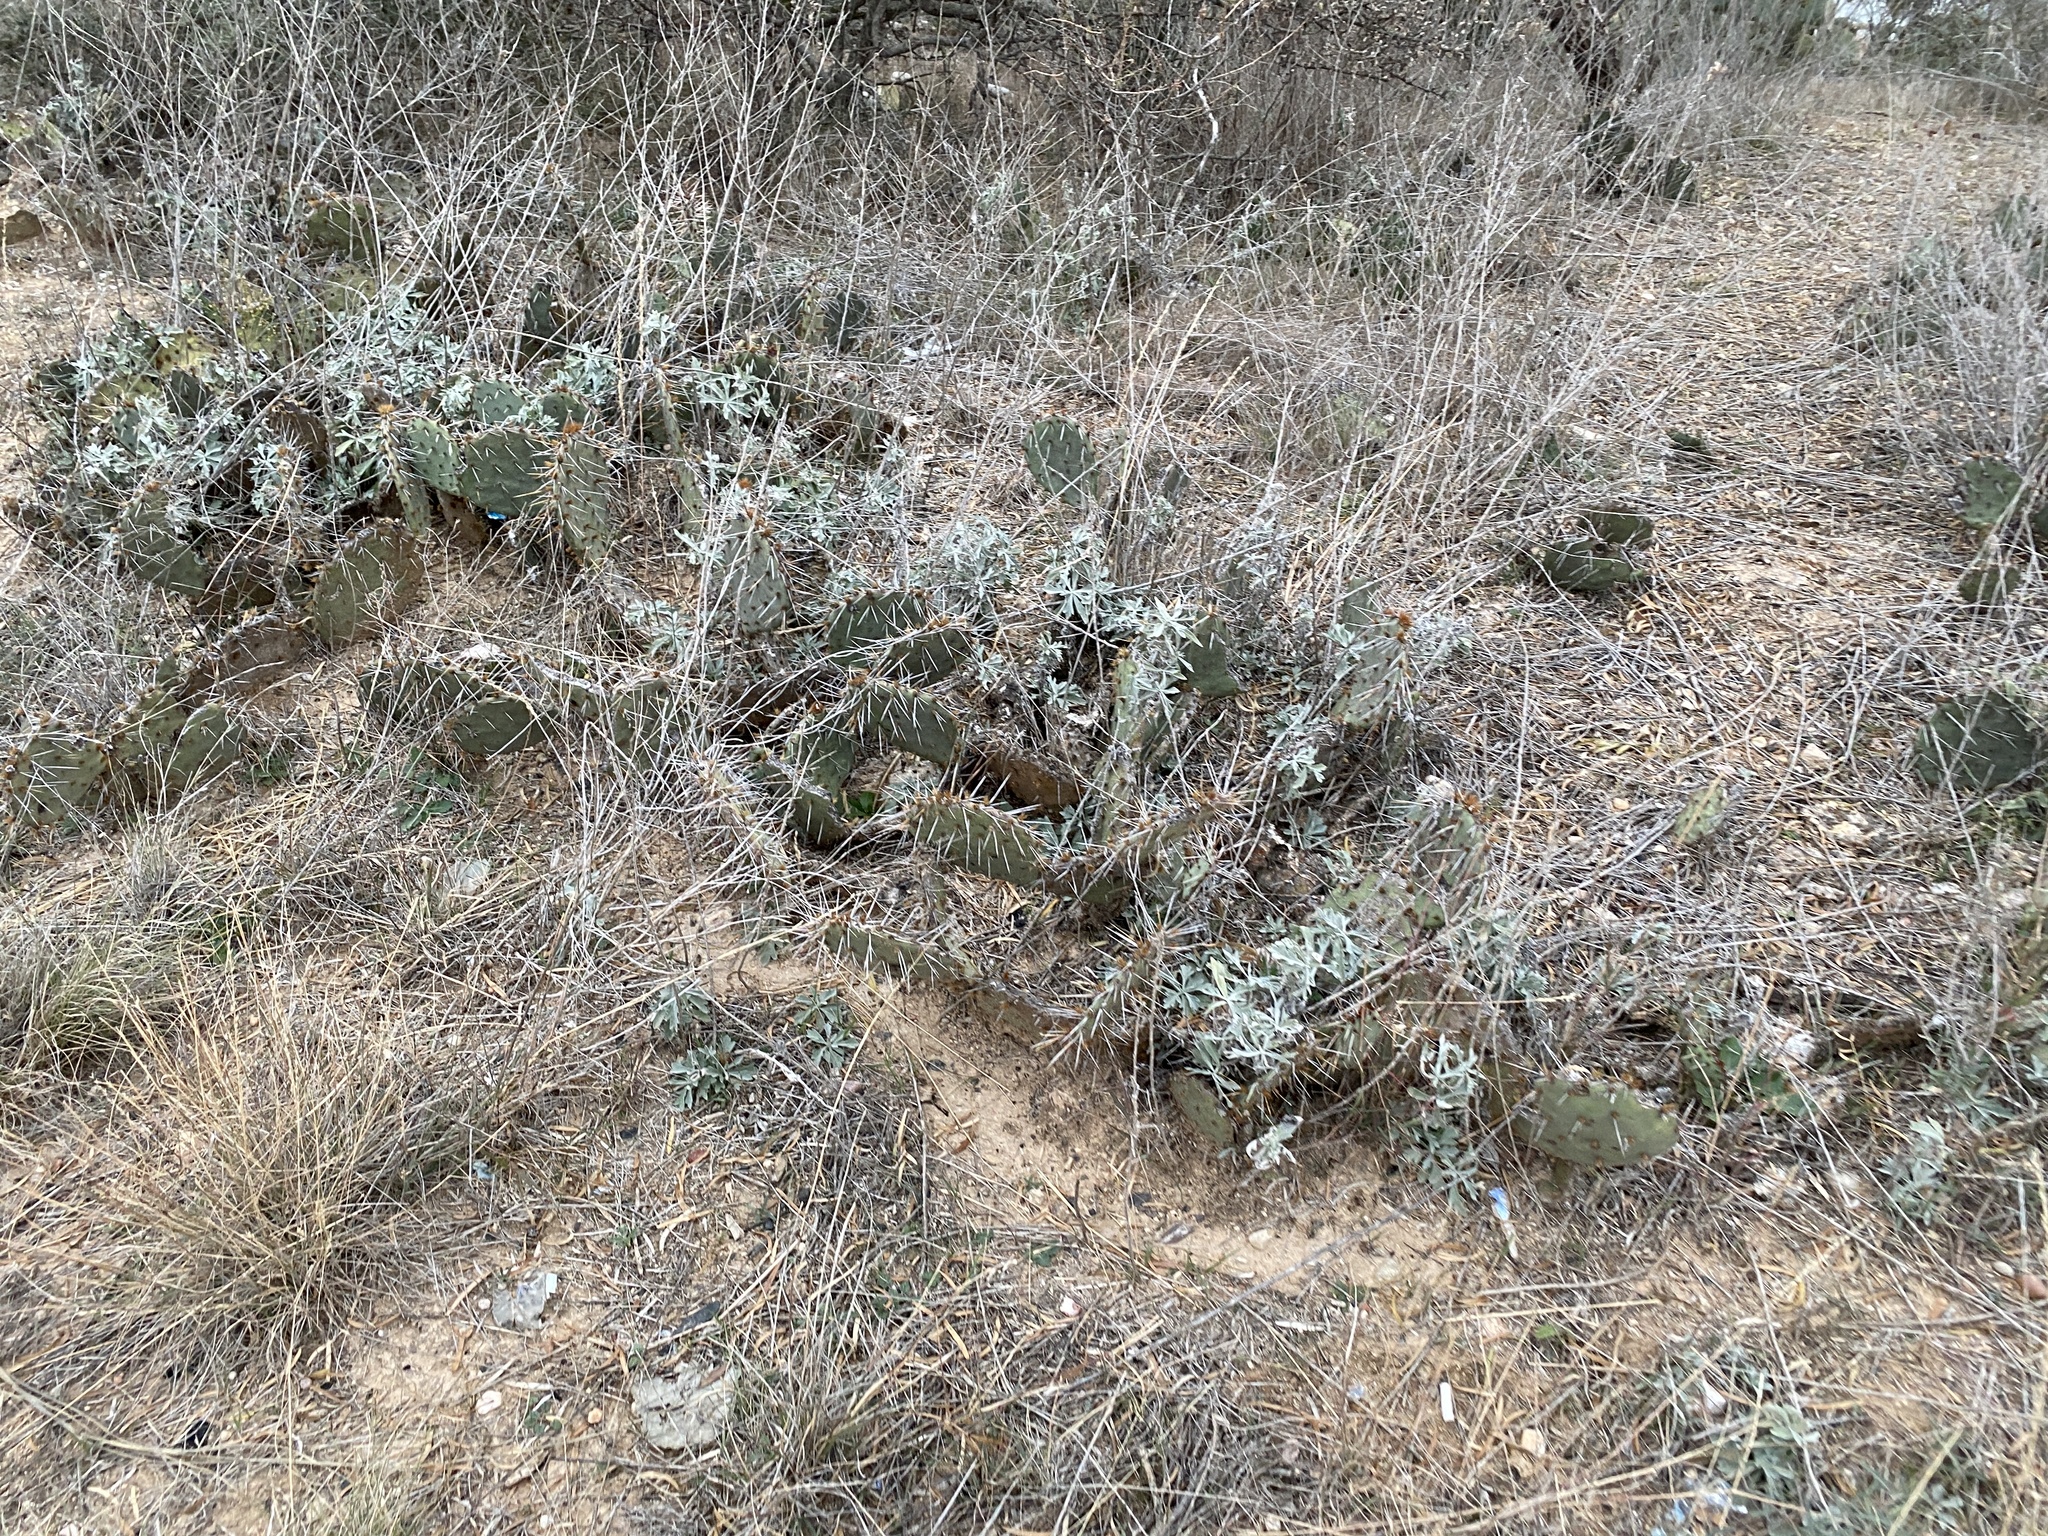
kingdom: Plantae
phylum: Tracheophyta
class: Magnoliopsida
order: Caryophyllales
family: Cactaceae
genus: Opuntia
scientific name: Opuntia phaeacantha
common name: New mexico prickly-pear
